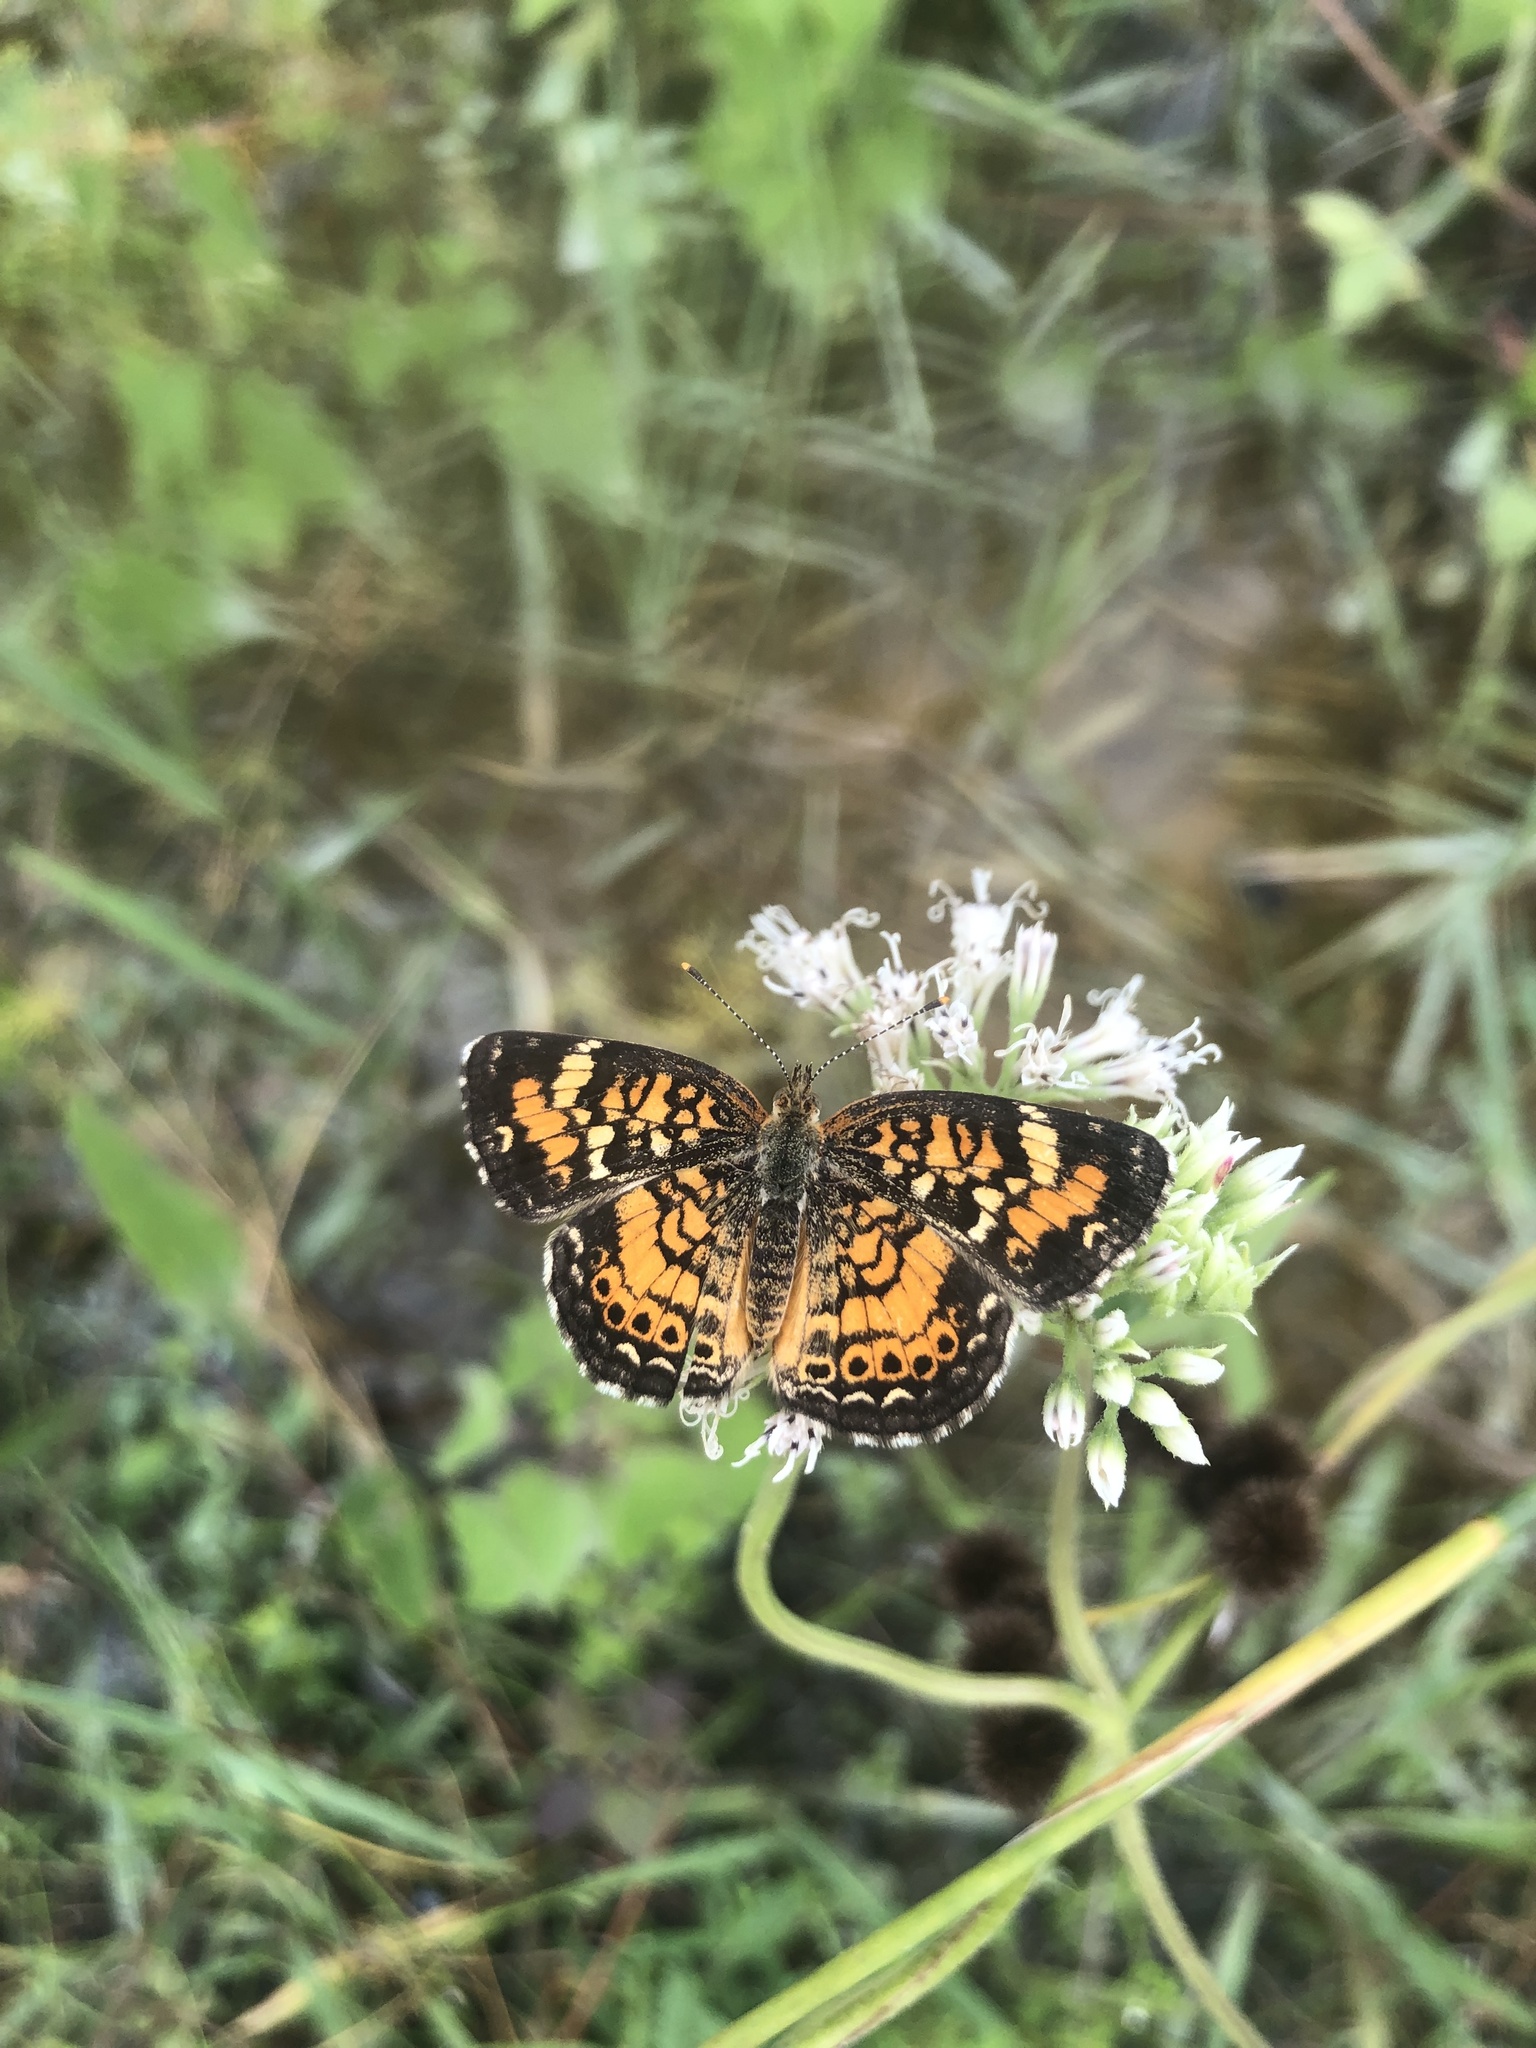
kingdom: Animalia
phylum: Arthropoda
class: Insecta
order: Lepidoptera
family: Nymphalidae
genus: Phyciodes
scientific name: Phyciodes phaon
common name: Phaon crescent
